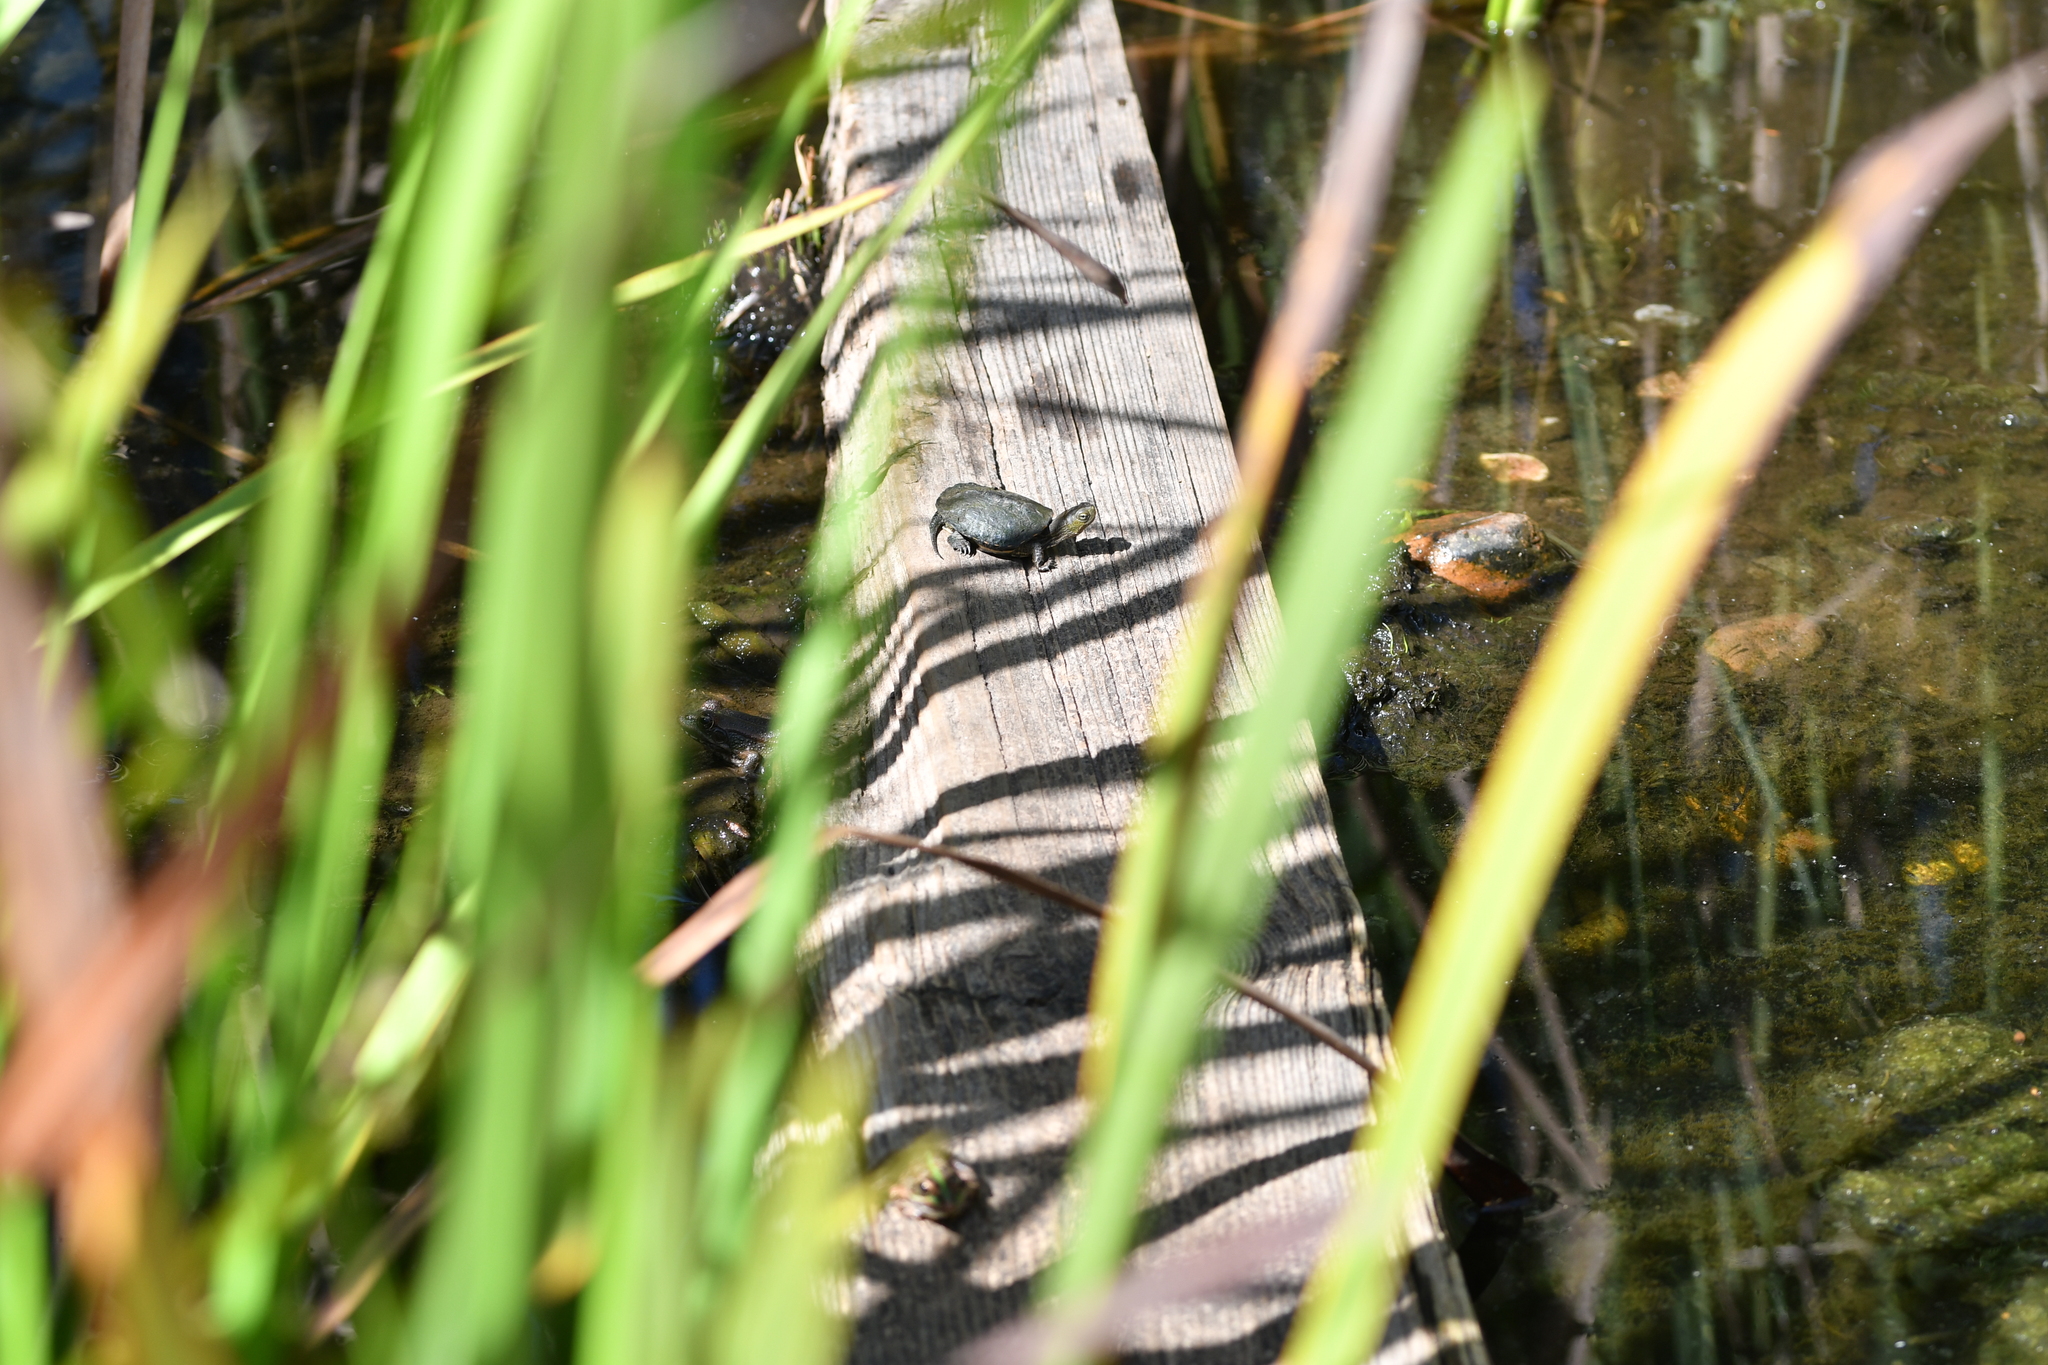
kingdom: Animalia
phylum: Chordata
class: Testudines
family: Geoemydidae
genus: Mauremys
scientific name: Mauremys leprosa
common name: Mediterranean pond turtle
